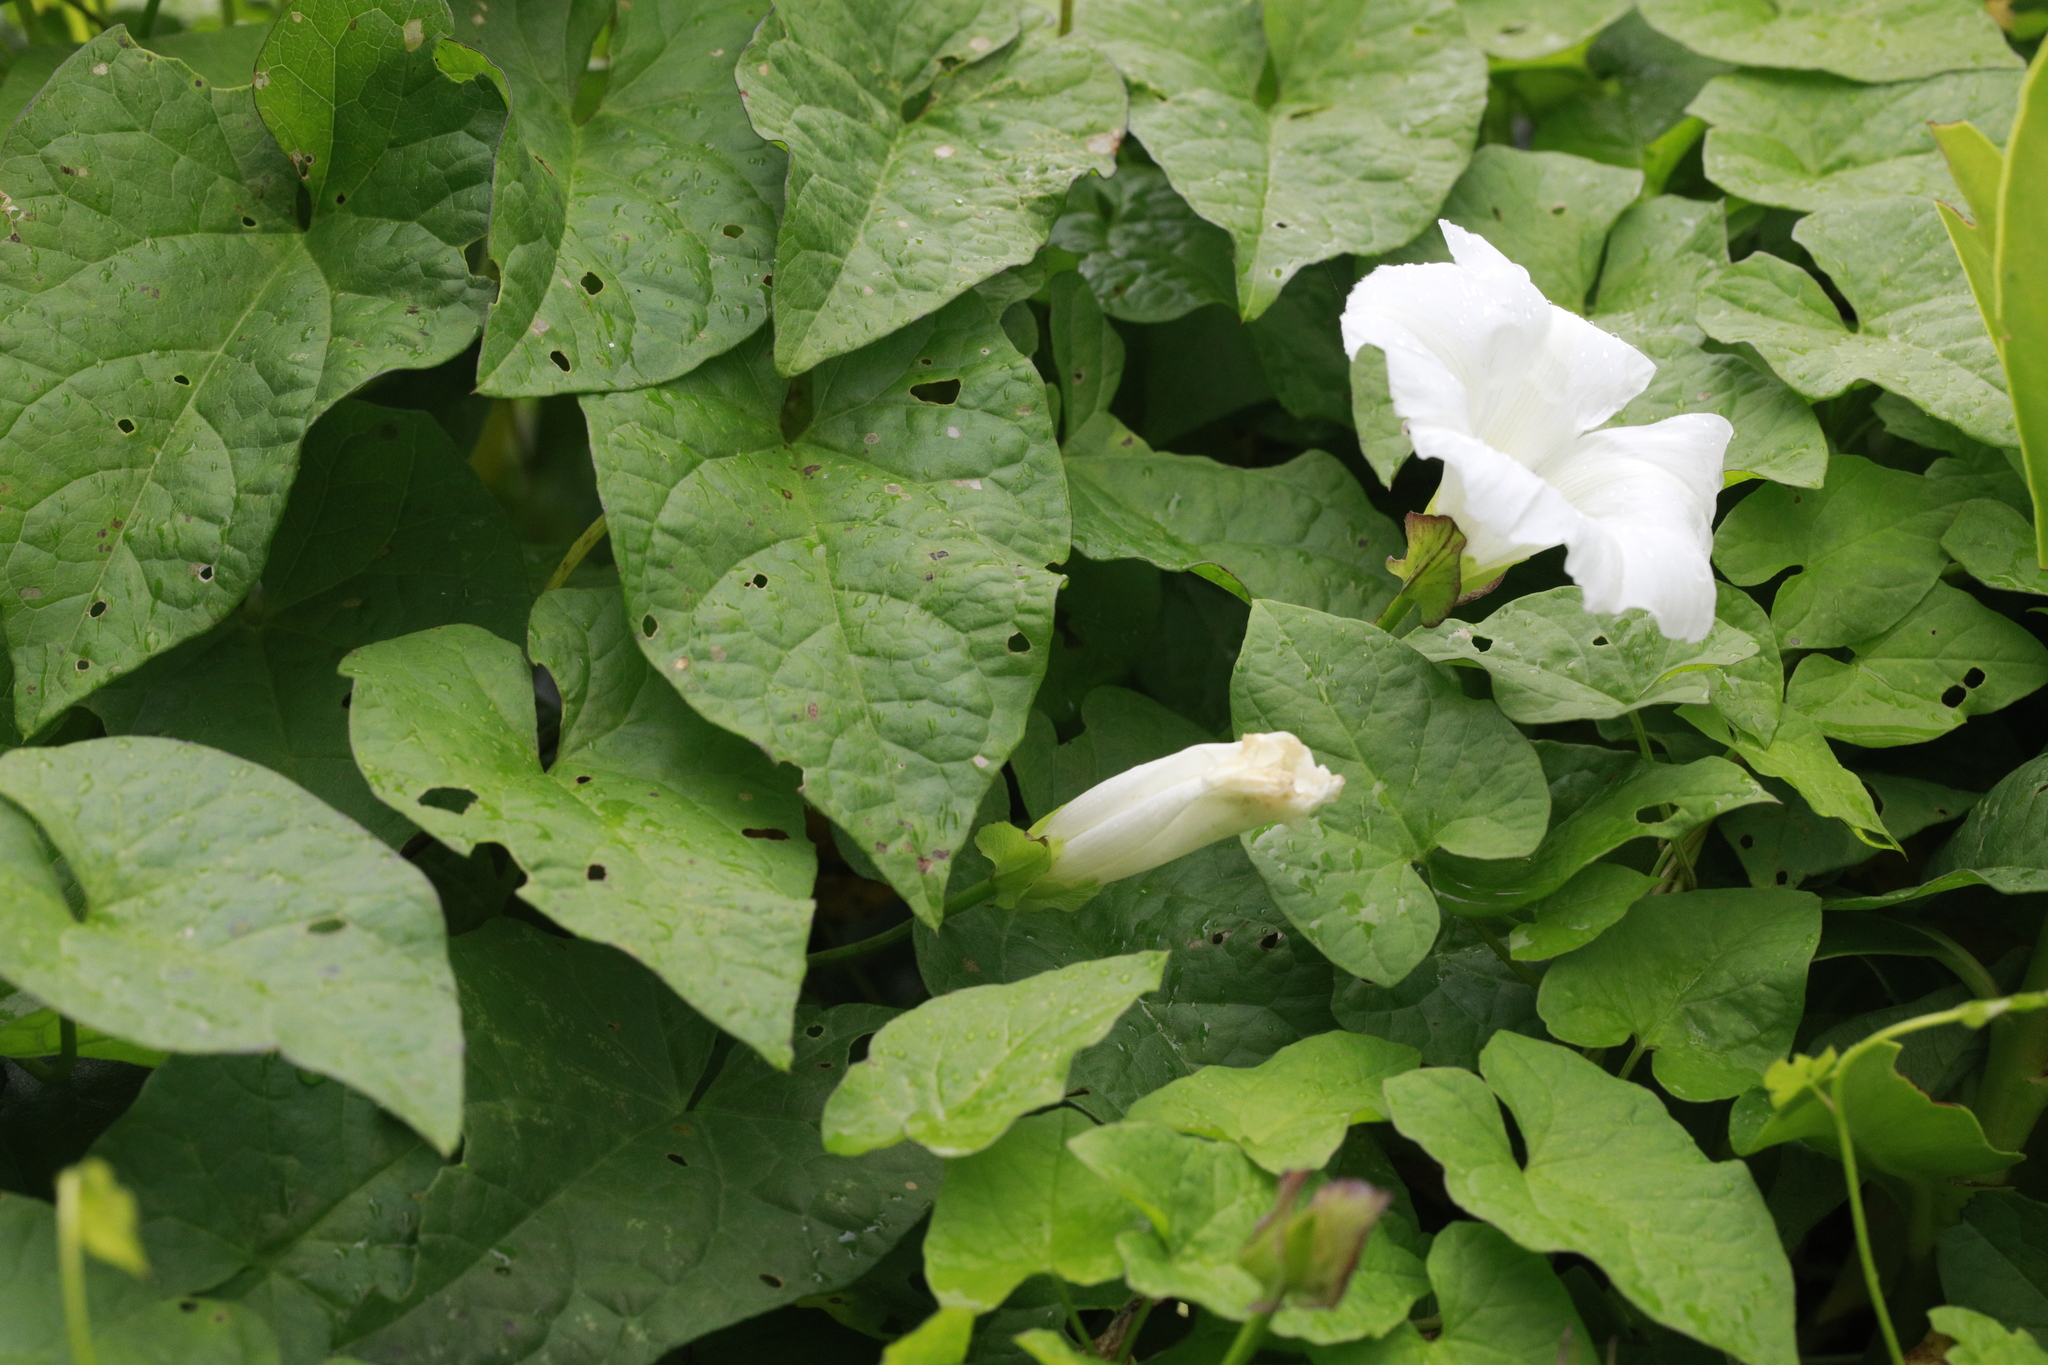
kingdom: Plantae
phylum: Tracheophyta
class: Magnoliopsida
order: Solanales
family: Convolvulaceae
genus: Calystegia
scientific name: Calystegia sepium
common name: Hedge bindweed
